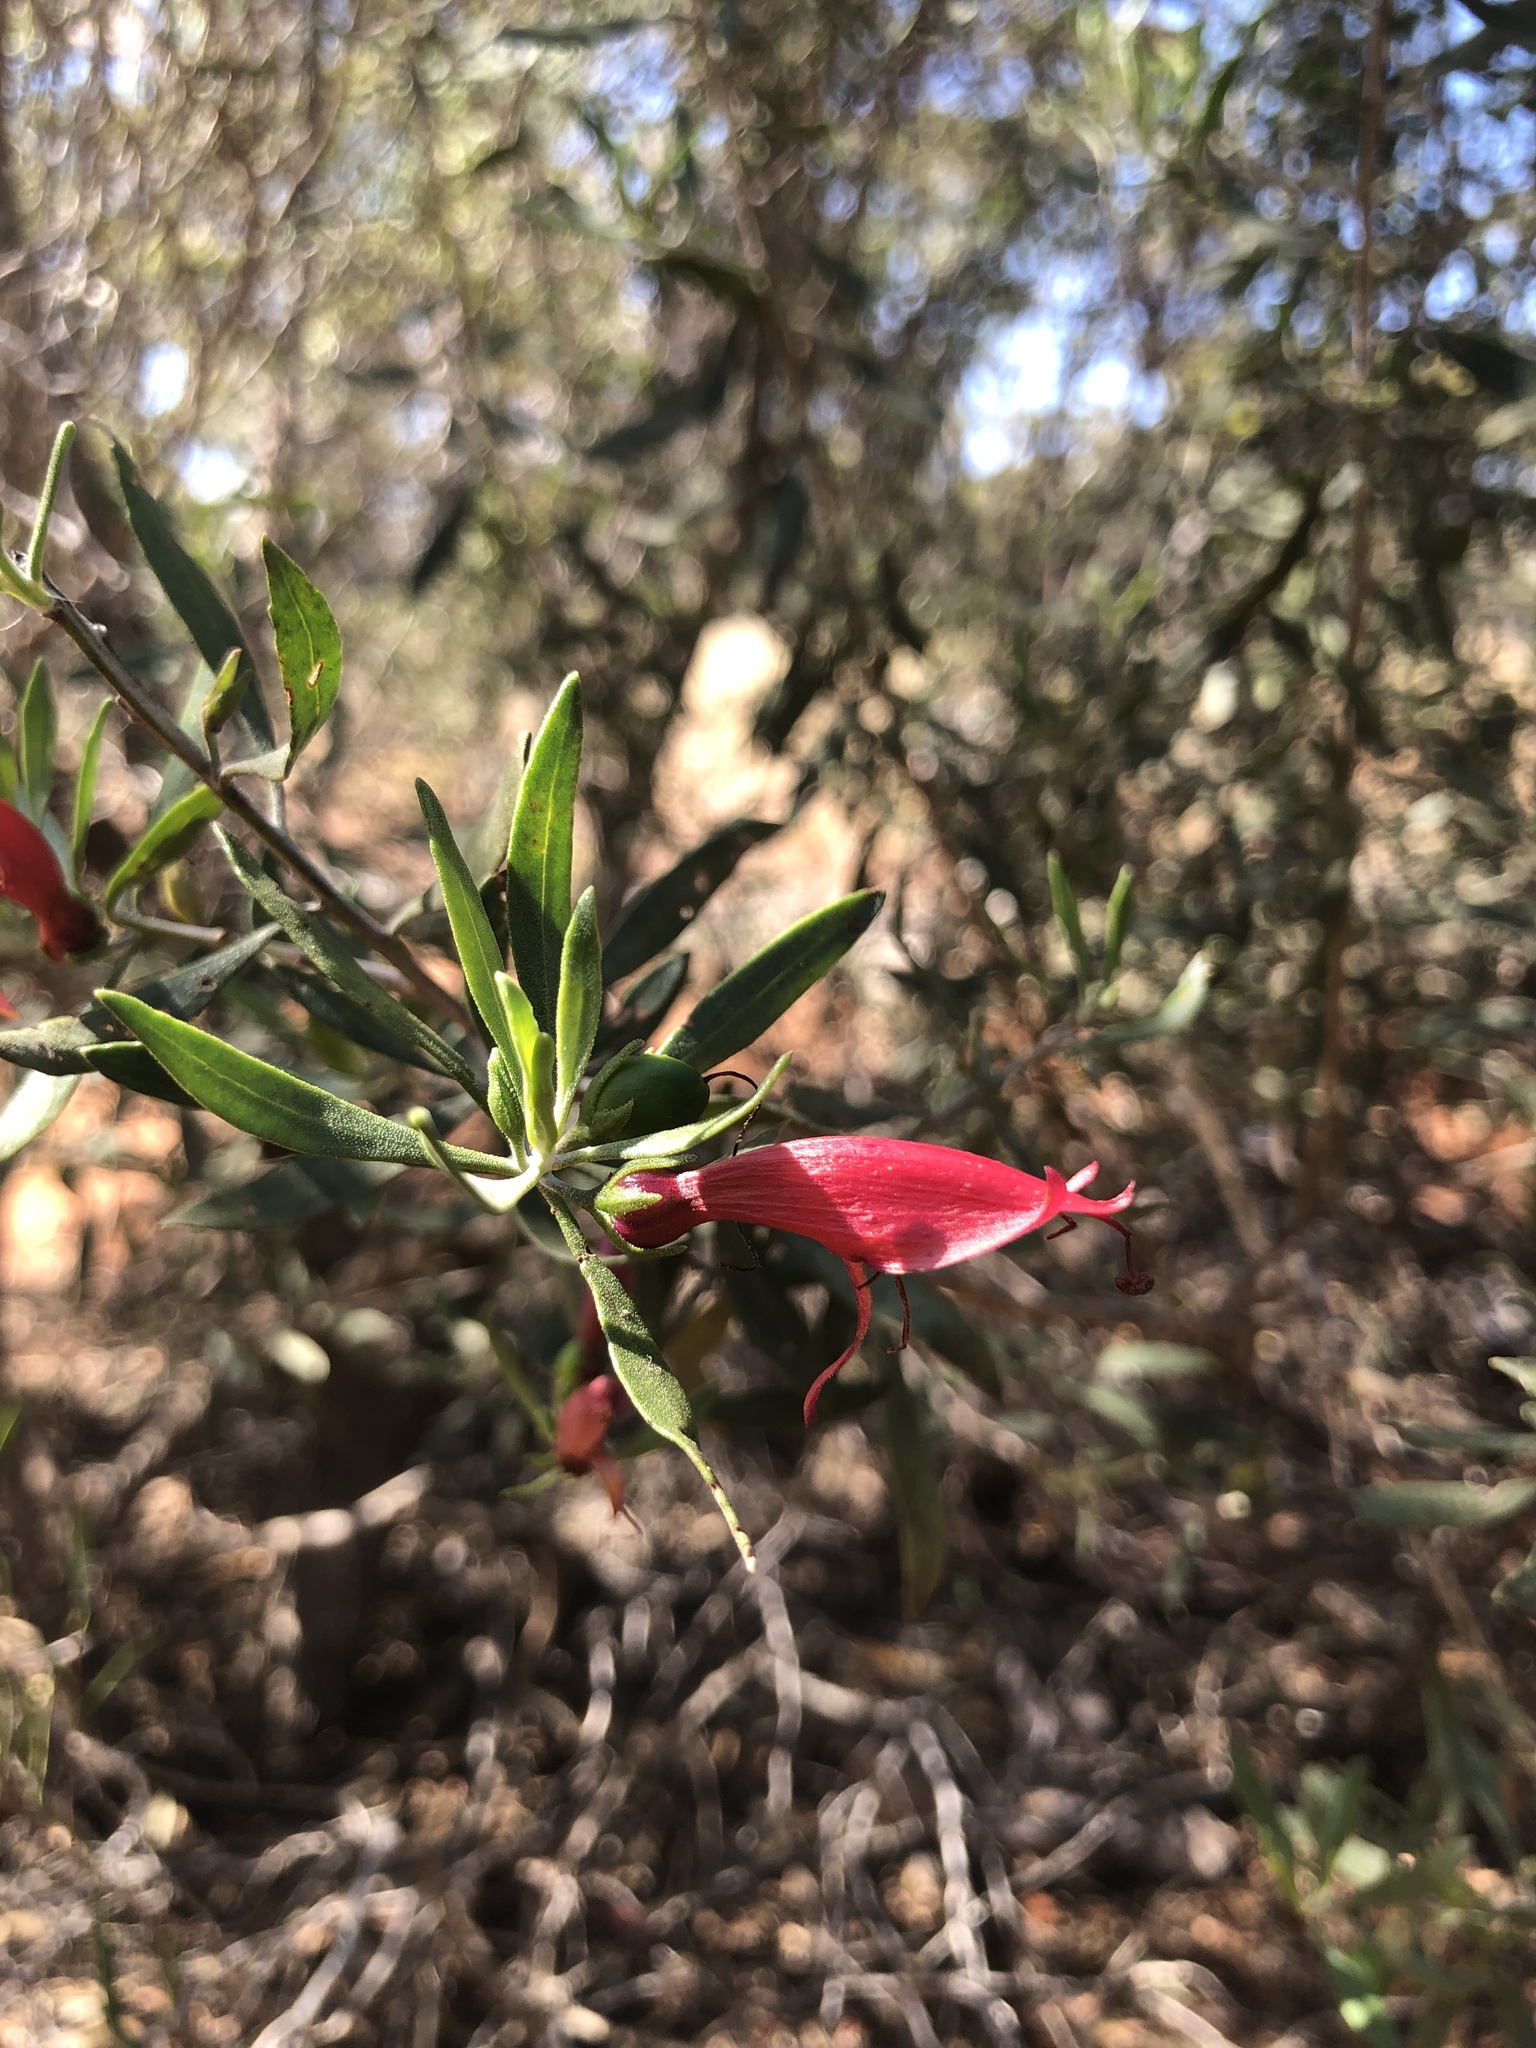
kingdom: Plantae
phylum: Tracheophyta
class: Magnoliopsida
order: Lamiales
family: Scrophulariaceae
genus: Eremophila
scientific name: Eremophila glabra
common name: Black-fuchsia
